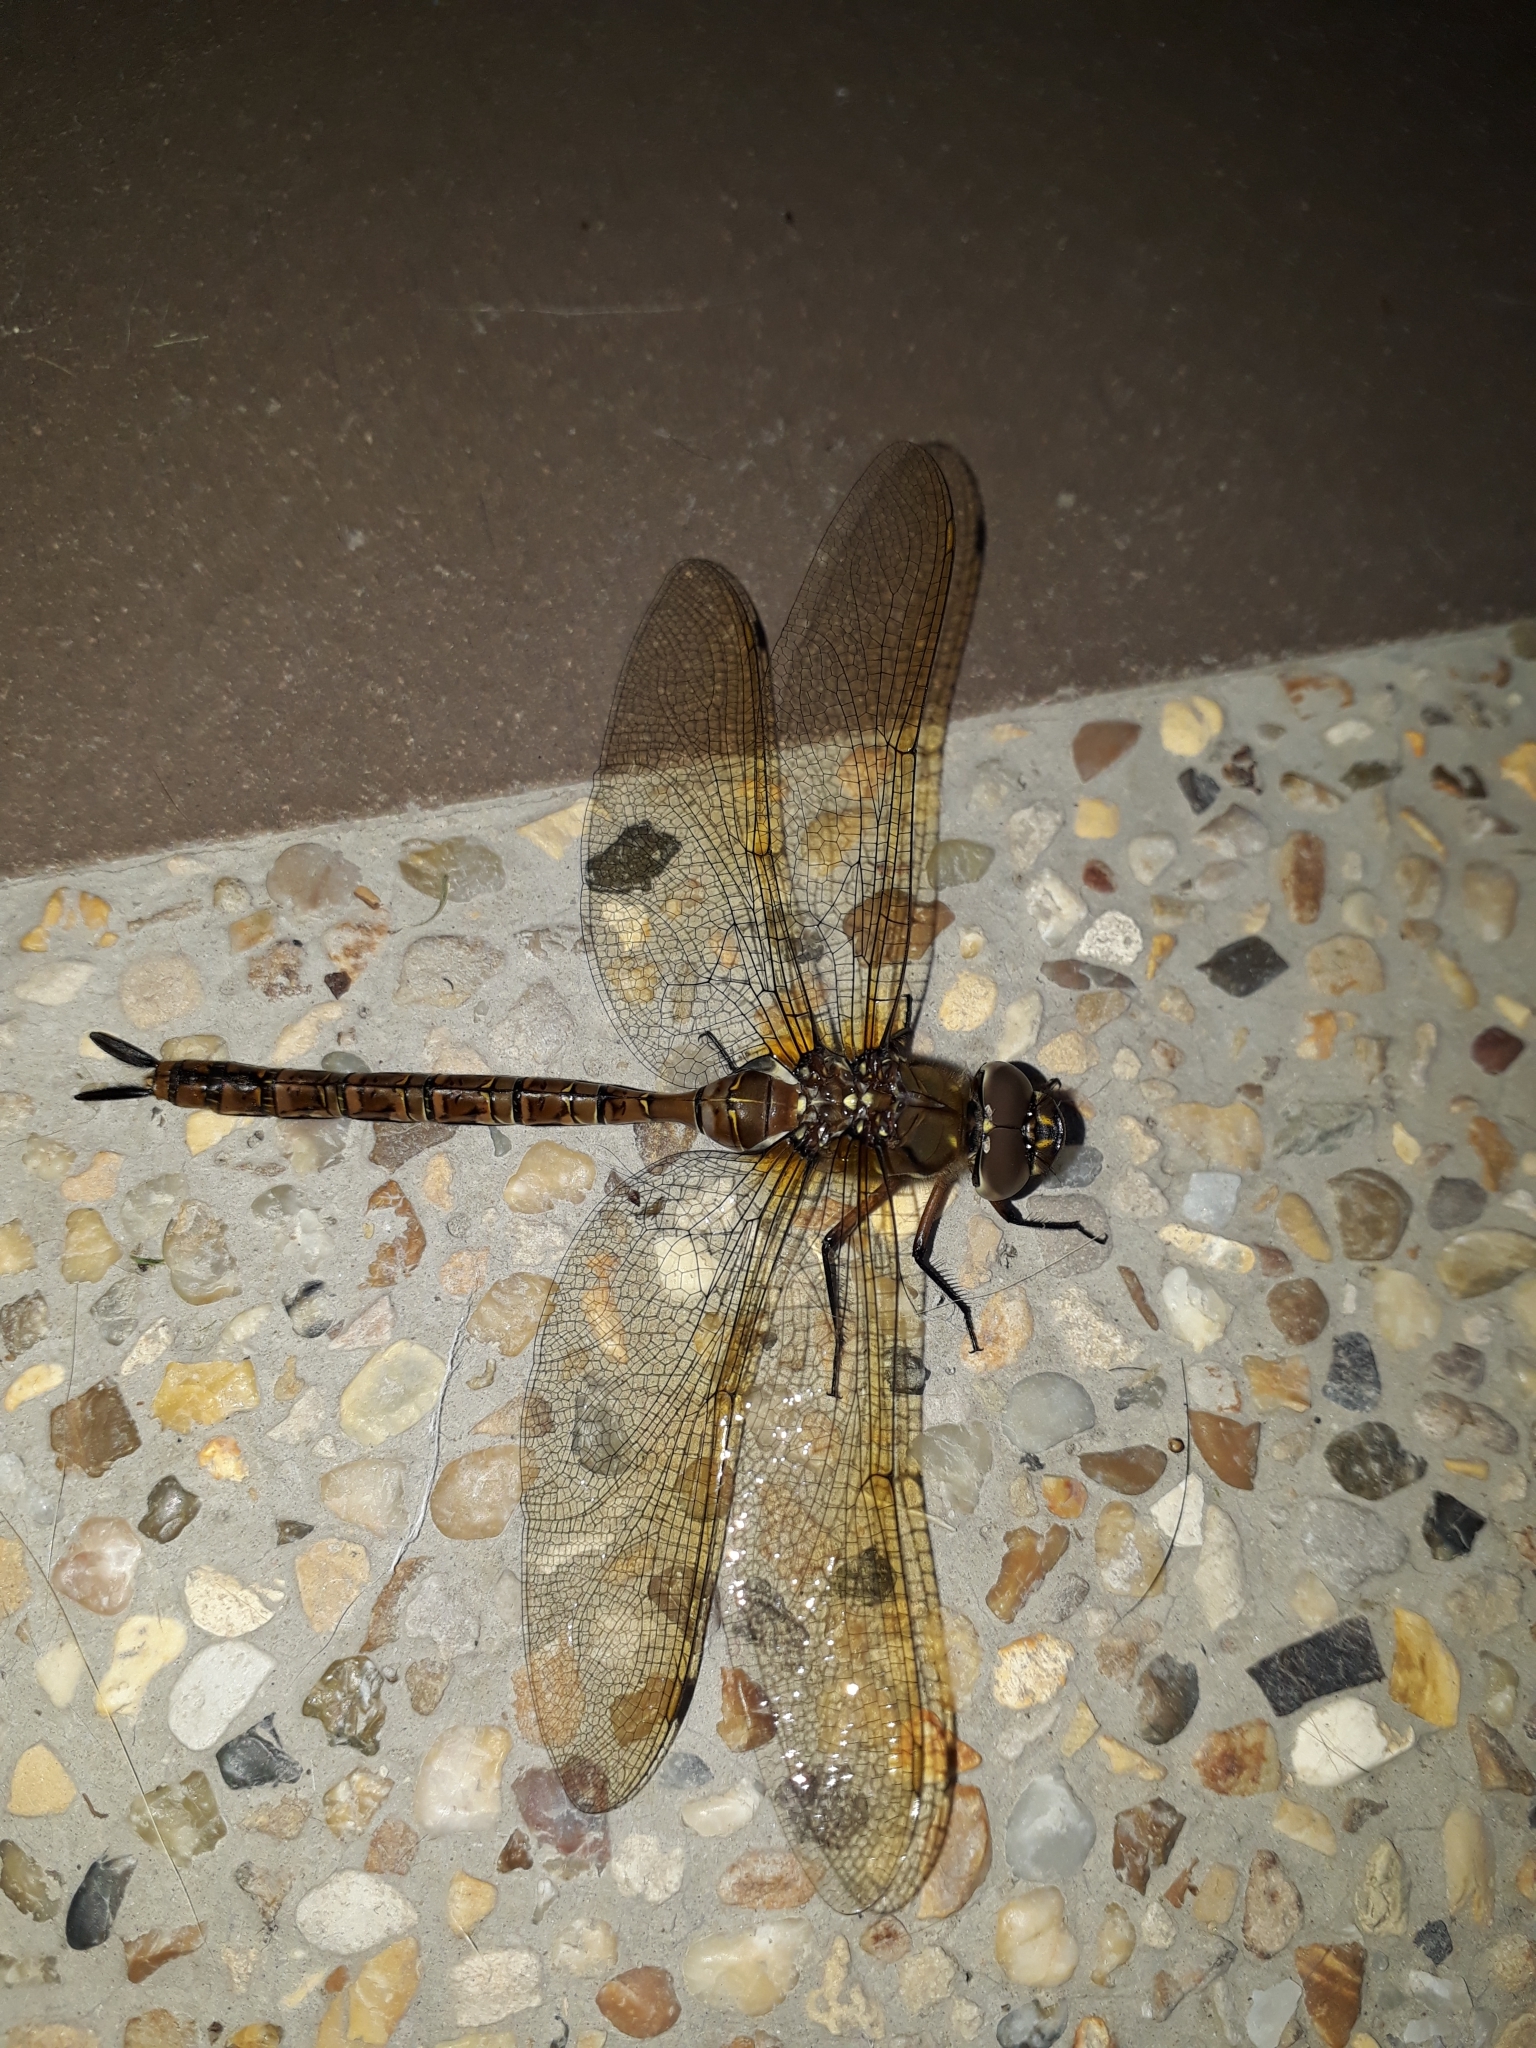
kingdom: Animalia
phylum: Arthropoda
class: Insecta
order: Odonata
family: Aeshnidae
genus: Rhionaeschna
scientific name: Rhionaeschna marchali
